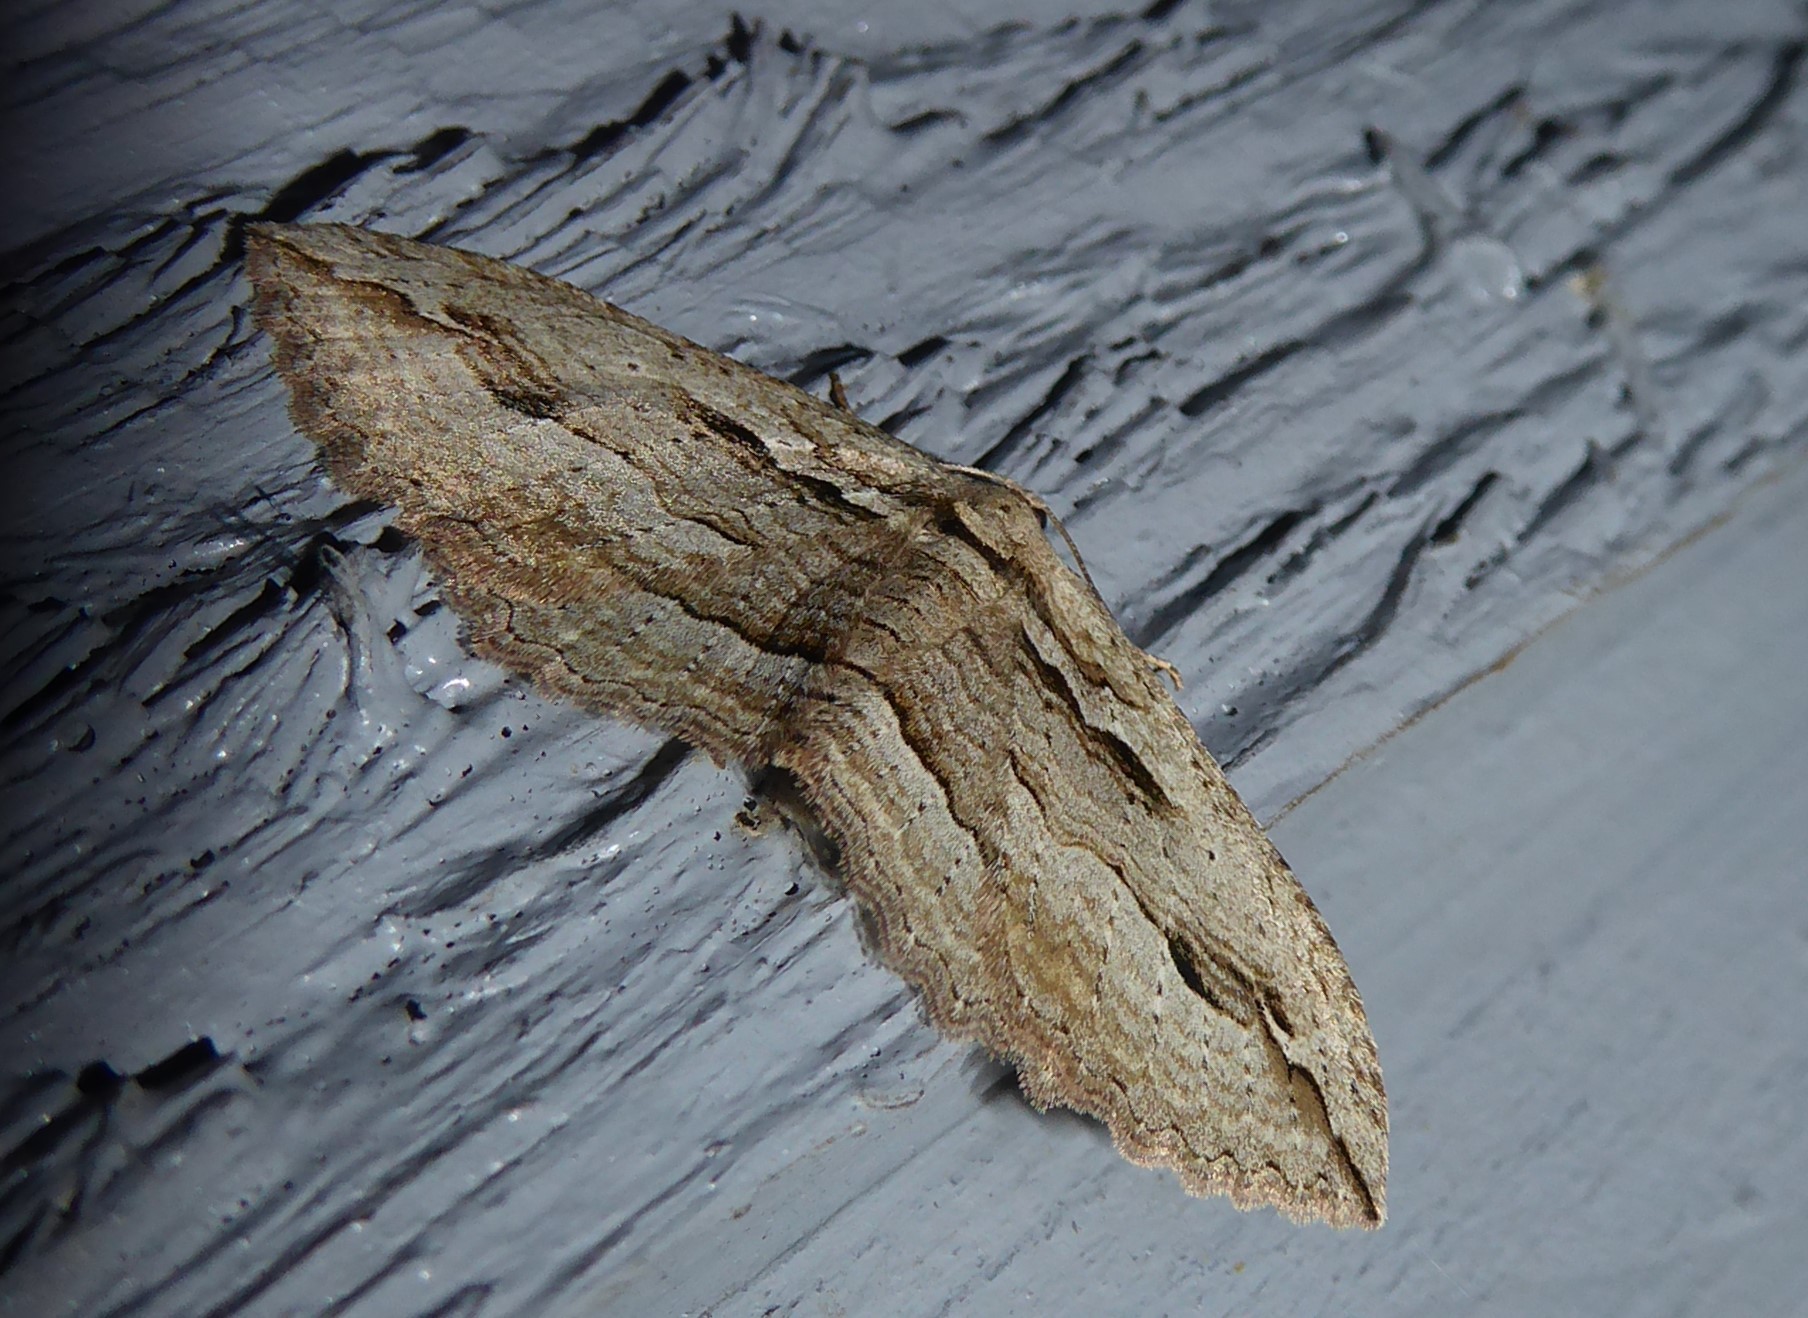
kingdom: Animalia
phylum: Arthropoda
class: Insecta
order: Lepidoptera
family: Geometridae
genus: Austrocidaria
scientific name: Austrocidaria gobiata
